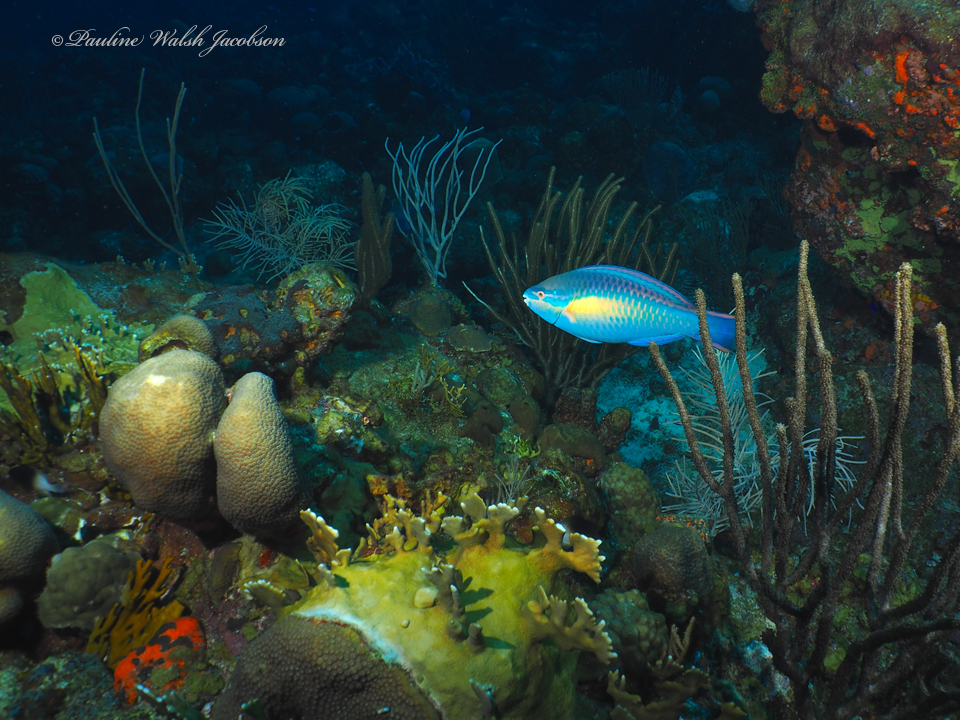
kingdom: Animalia
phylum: Chordata
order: Perciformes
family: Scaridae
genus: Scarus
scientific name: Scarus taeniopterus
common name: Princess parrotfish
